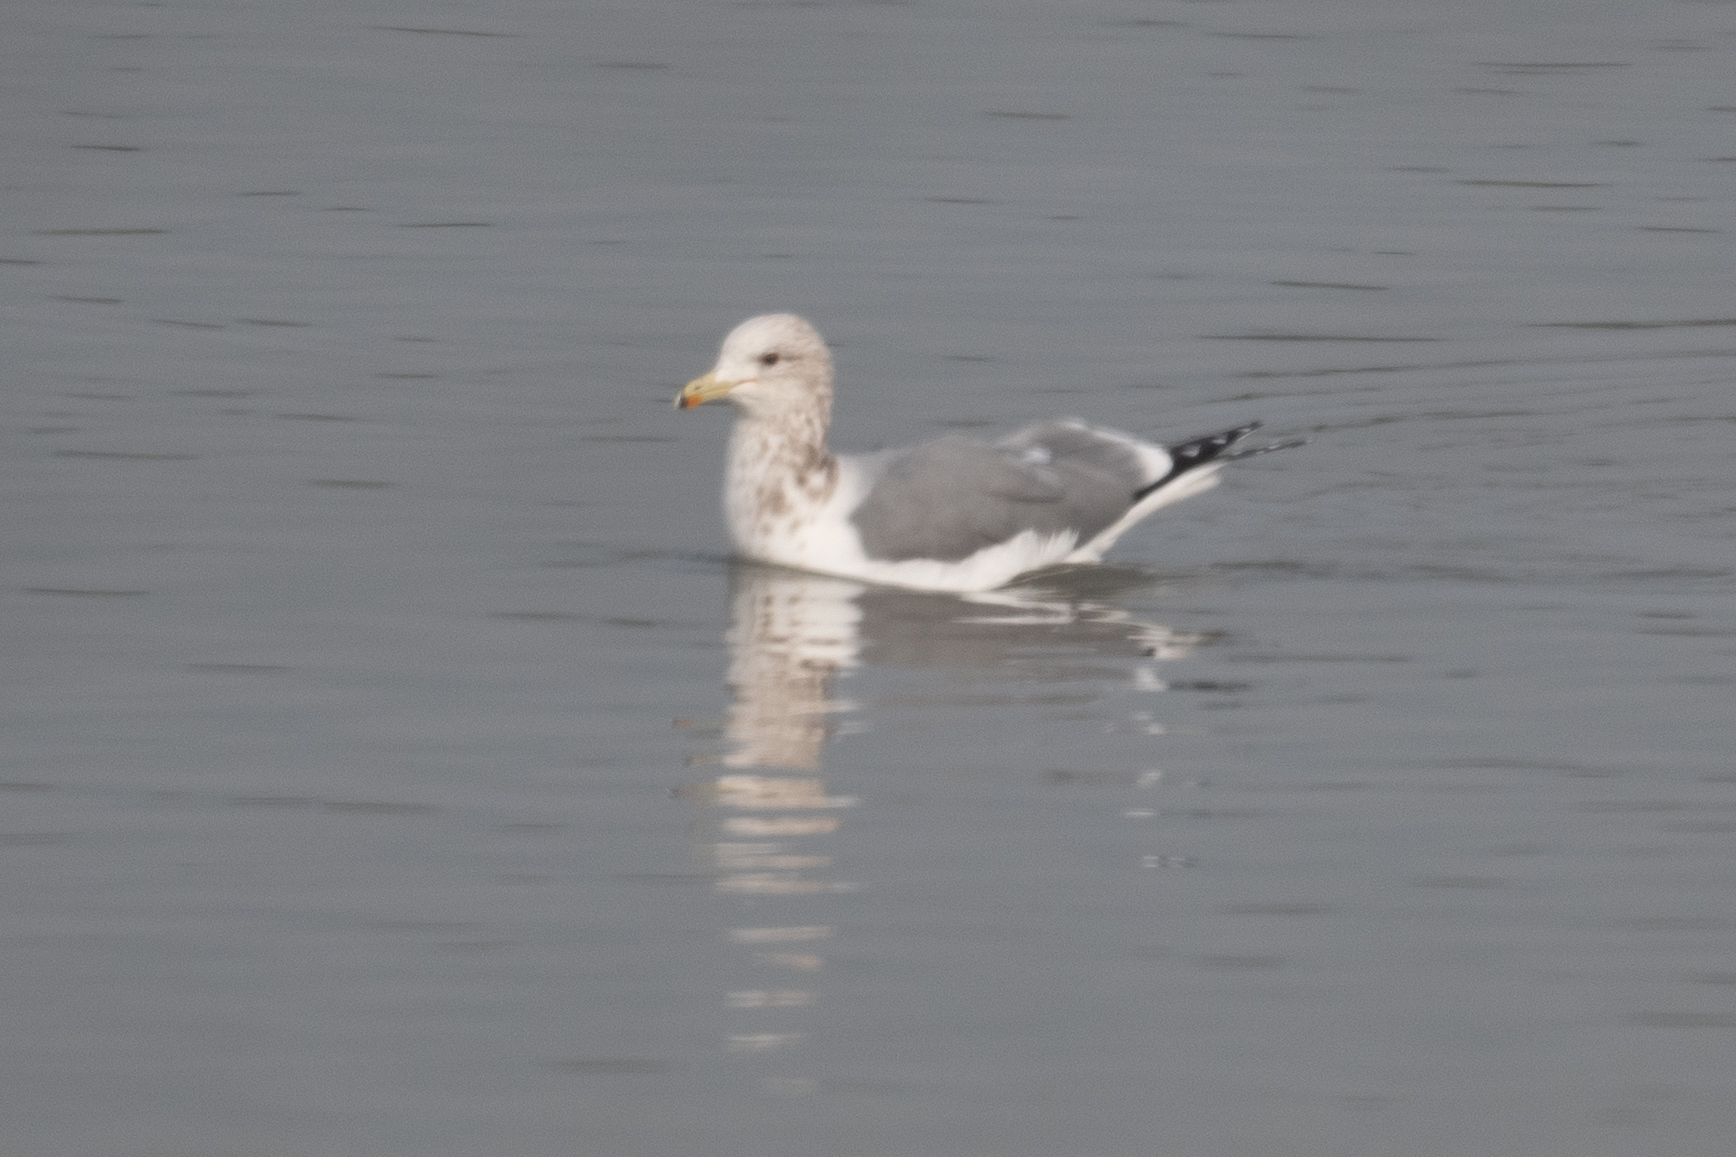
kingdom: Animalia
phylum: Chordata
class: Aves
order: Charadriiformes
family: Laridae
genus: Larus
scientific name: Larus californicus
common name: California gull
